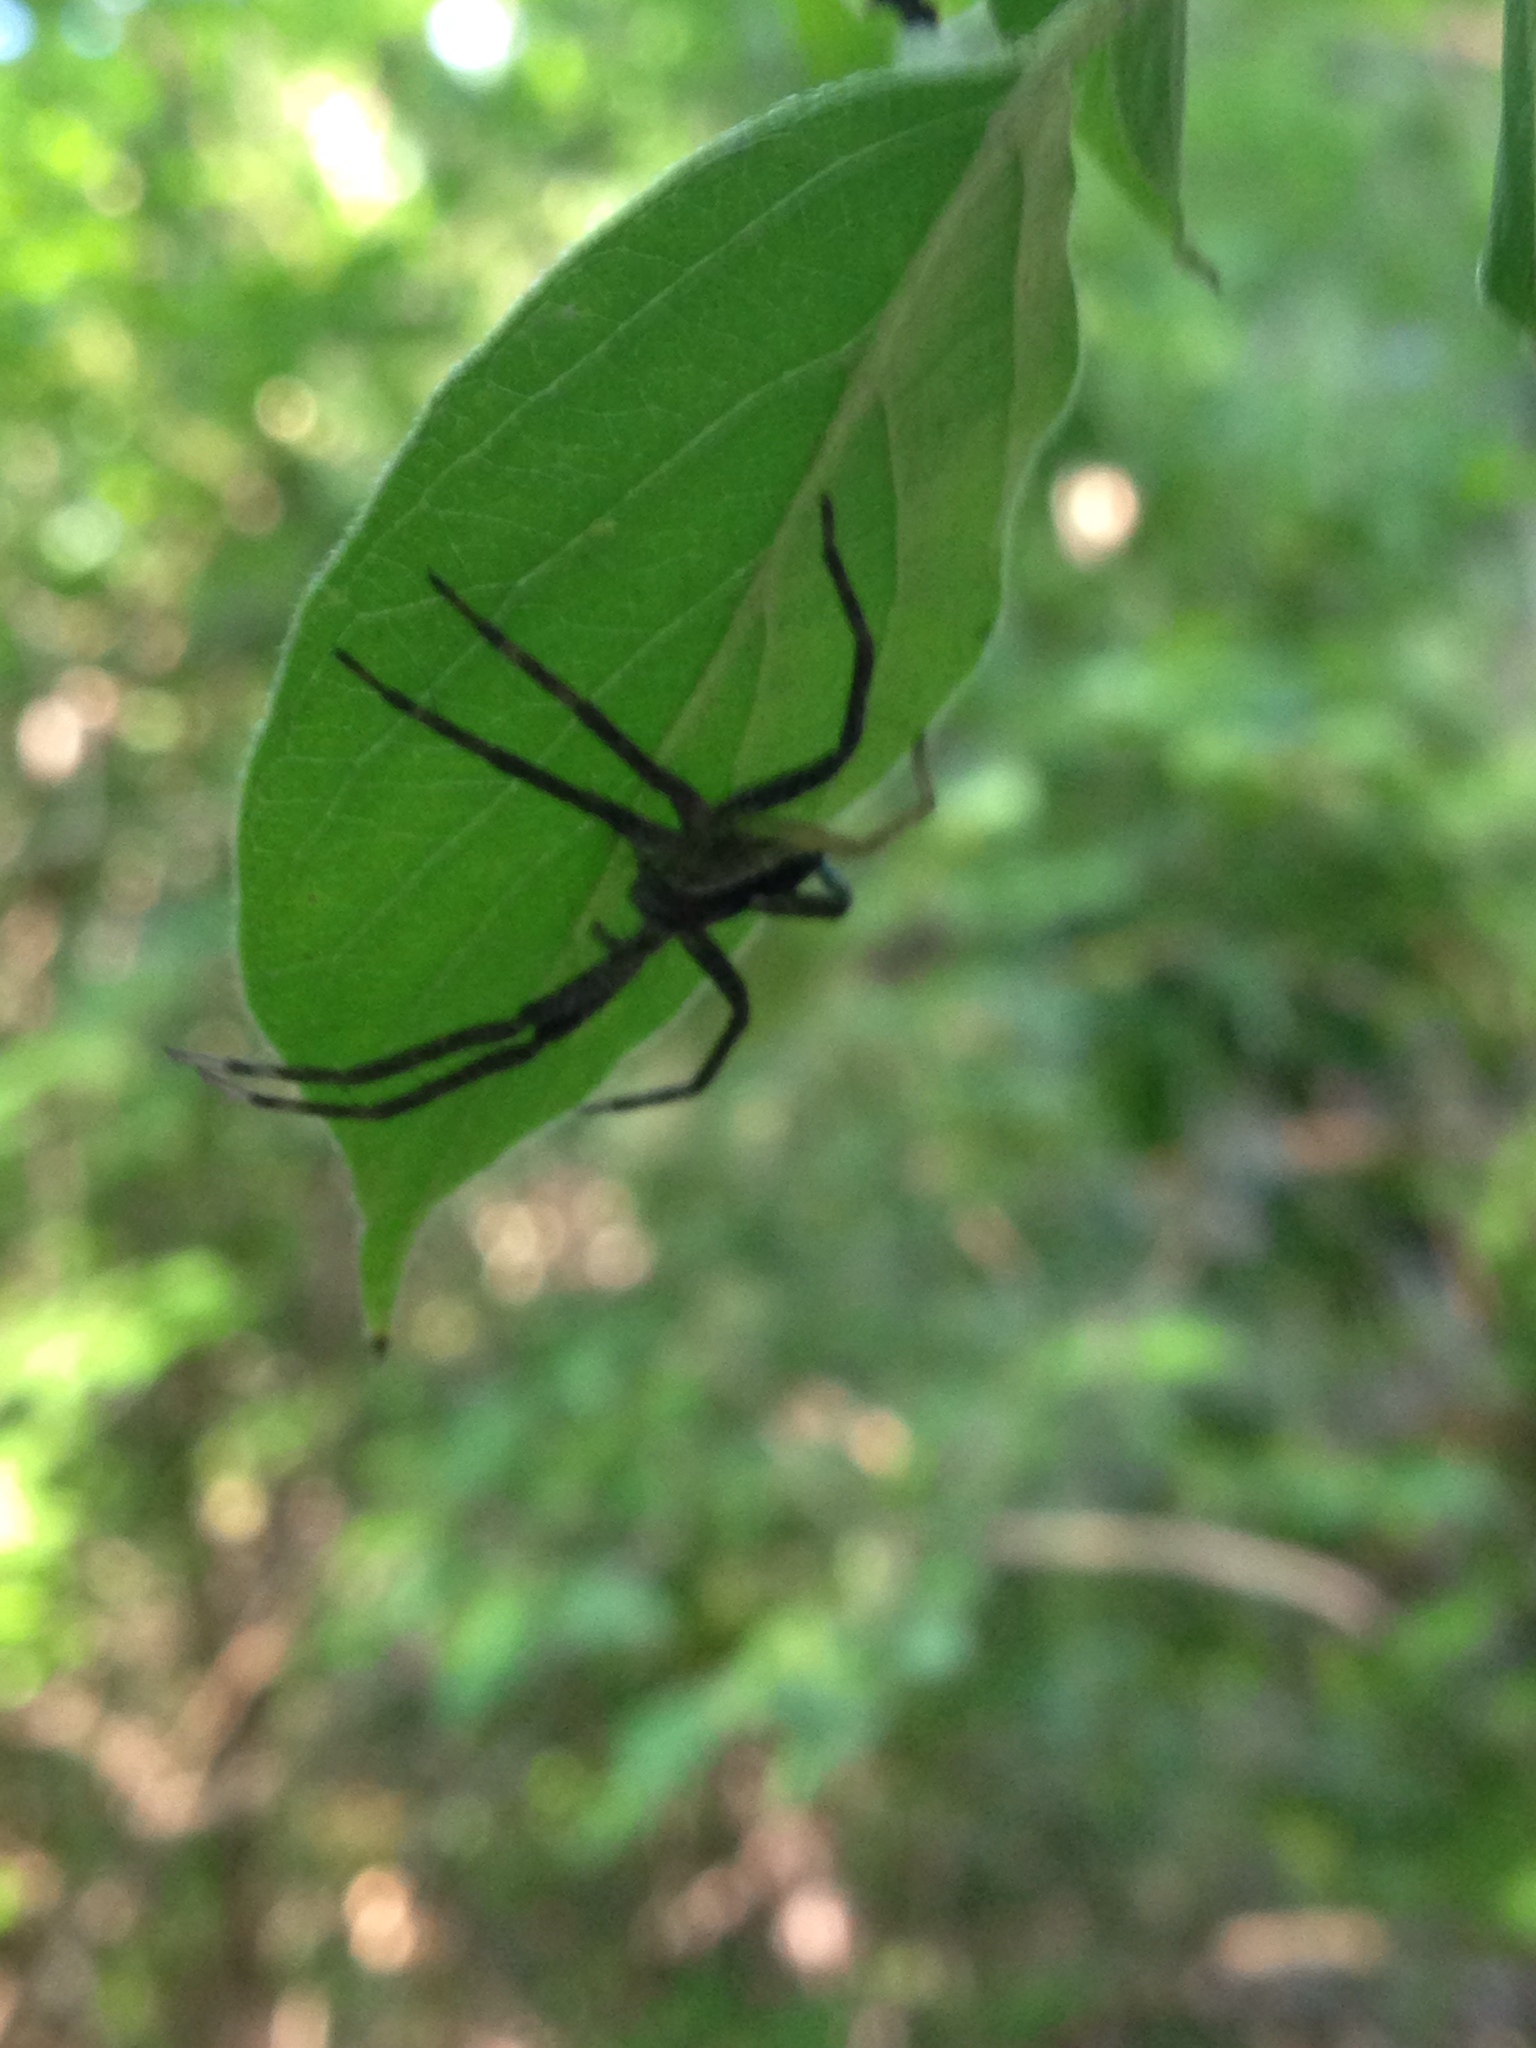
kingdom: Animalia
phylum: Arthropoda
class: Arachnida
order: Araneae
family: Pisauridae
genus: Pisaurina
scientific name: Pisaurina mira
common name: American nursery web spider
